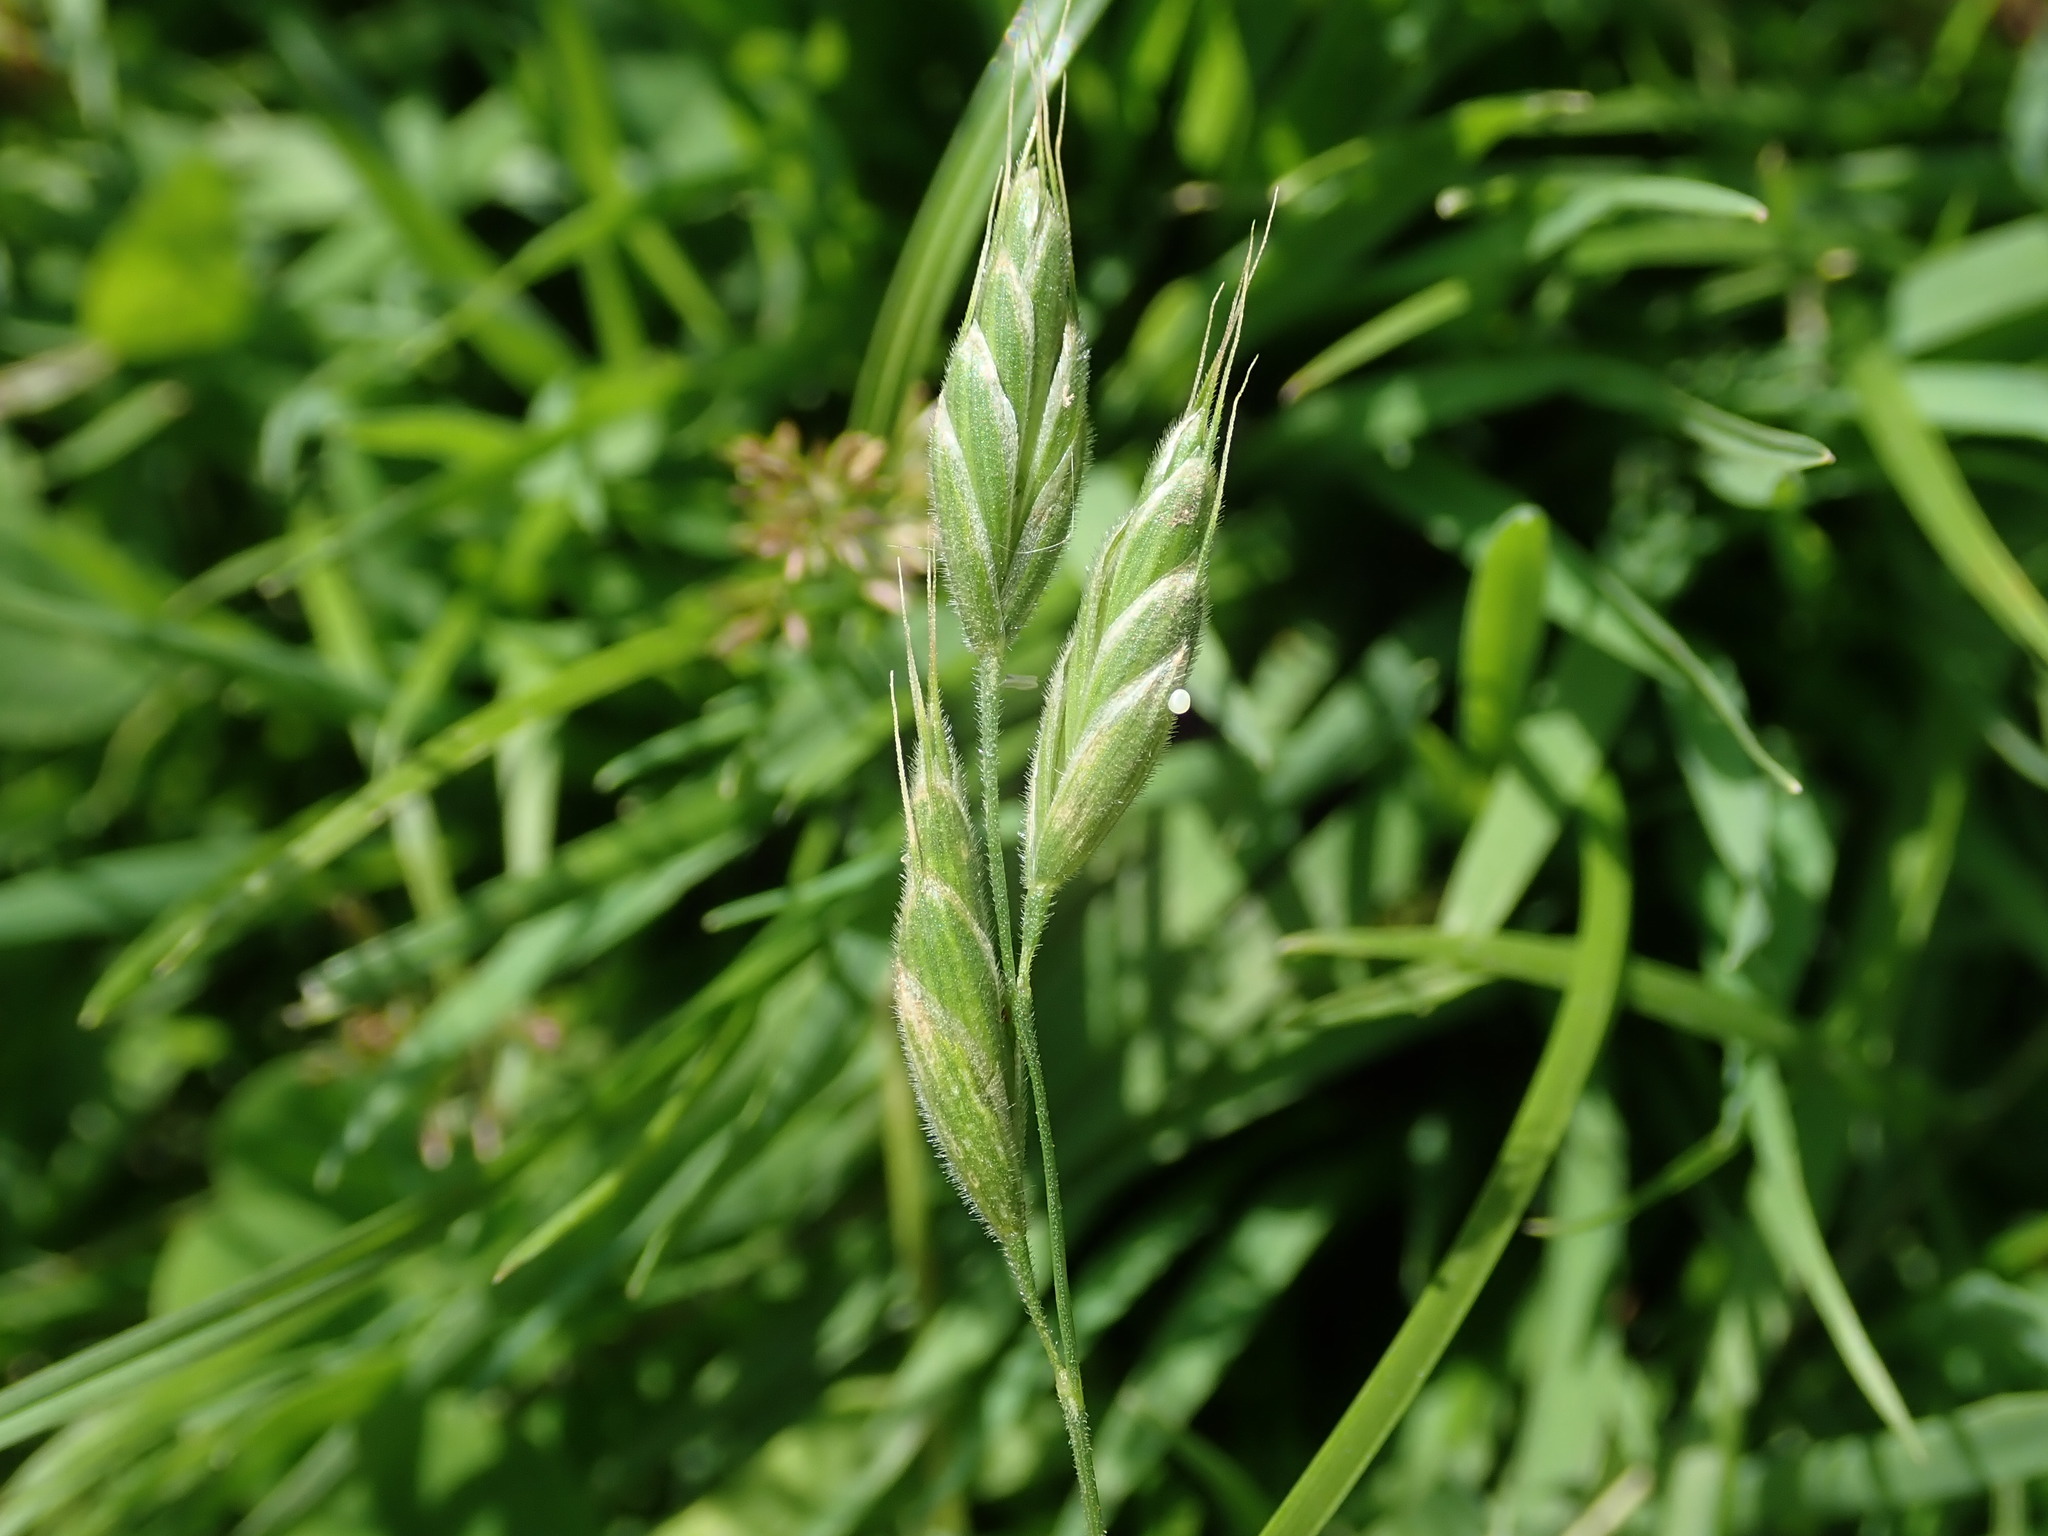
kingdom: Plantae
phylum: Tracheophyta
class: Liliopsida
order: Poales
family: Poaceae
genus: Bromus
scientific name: Bromus hordeaceus
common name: Soft brome
